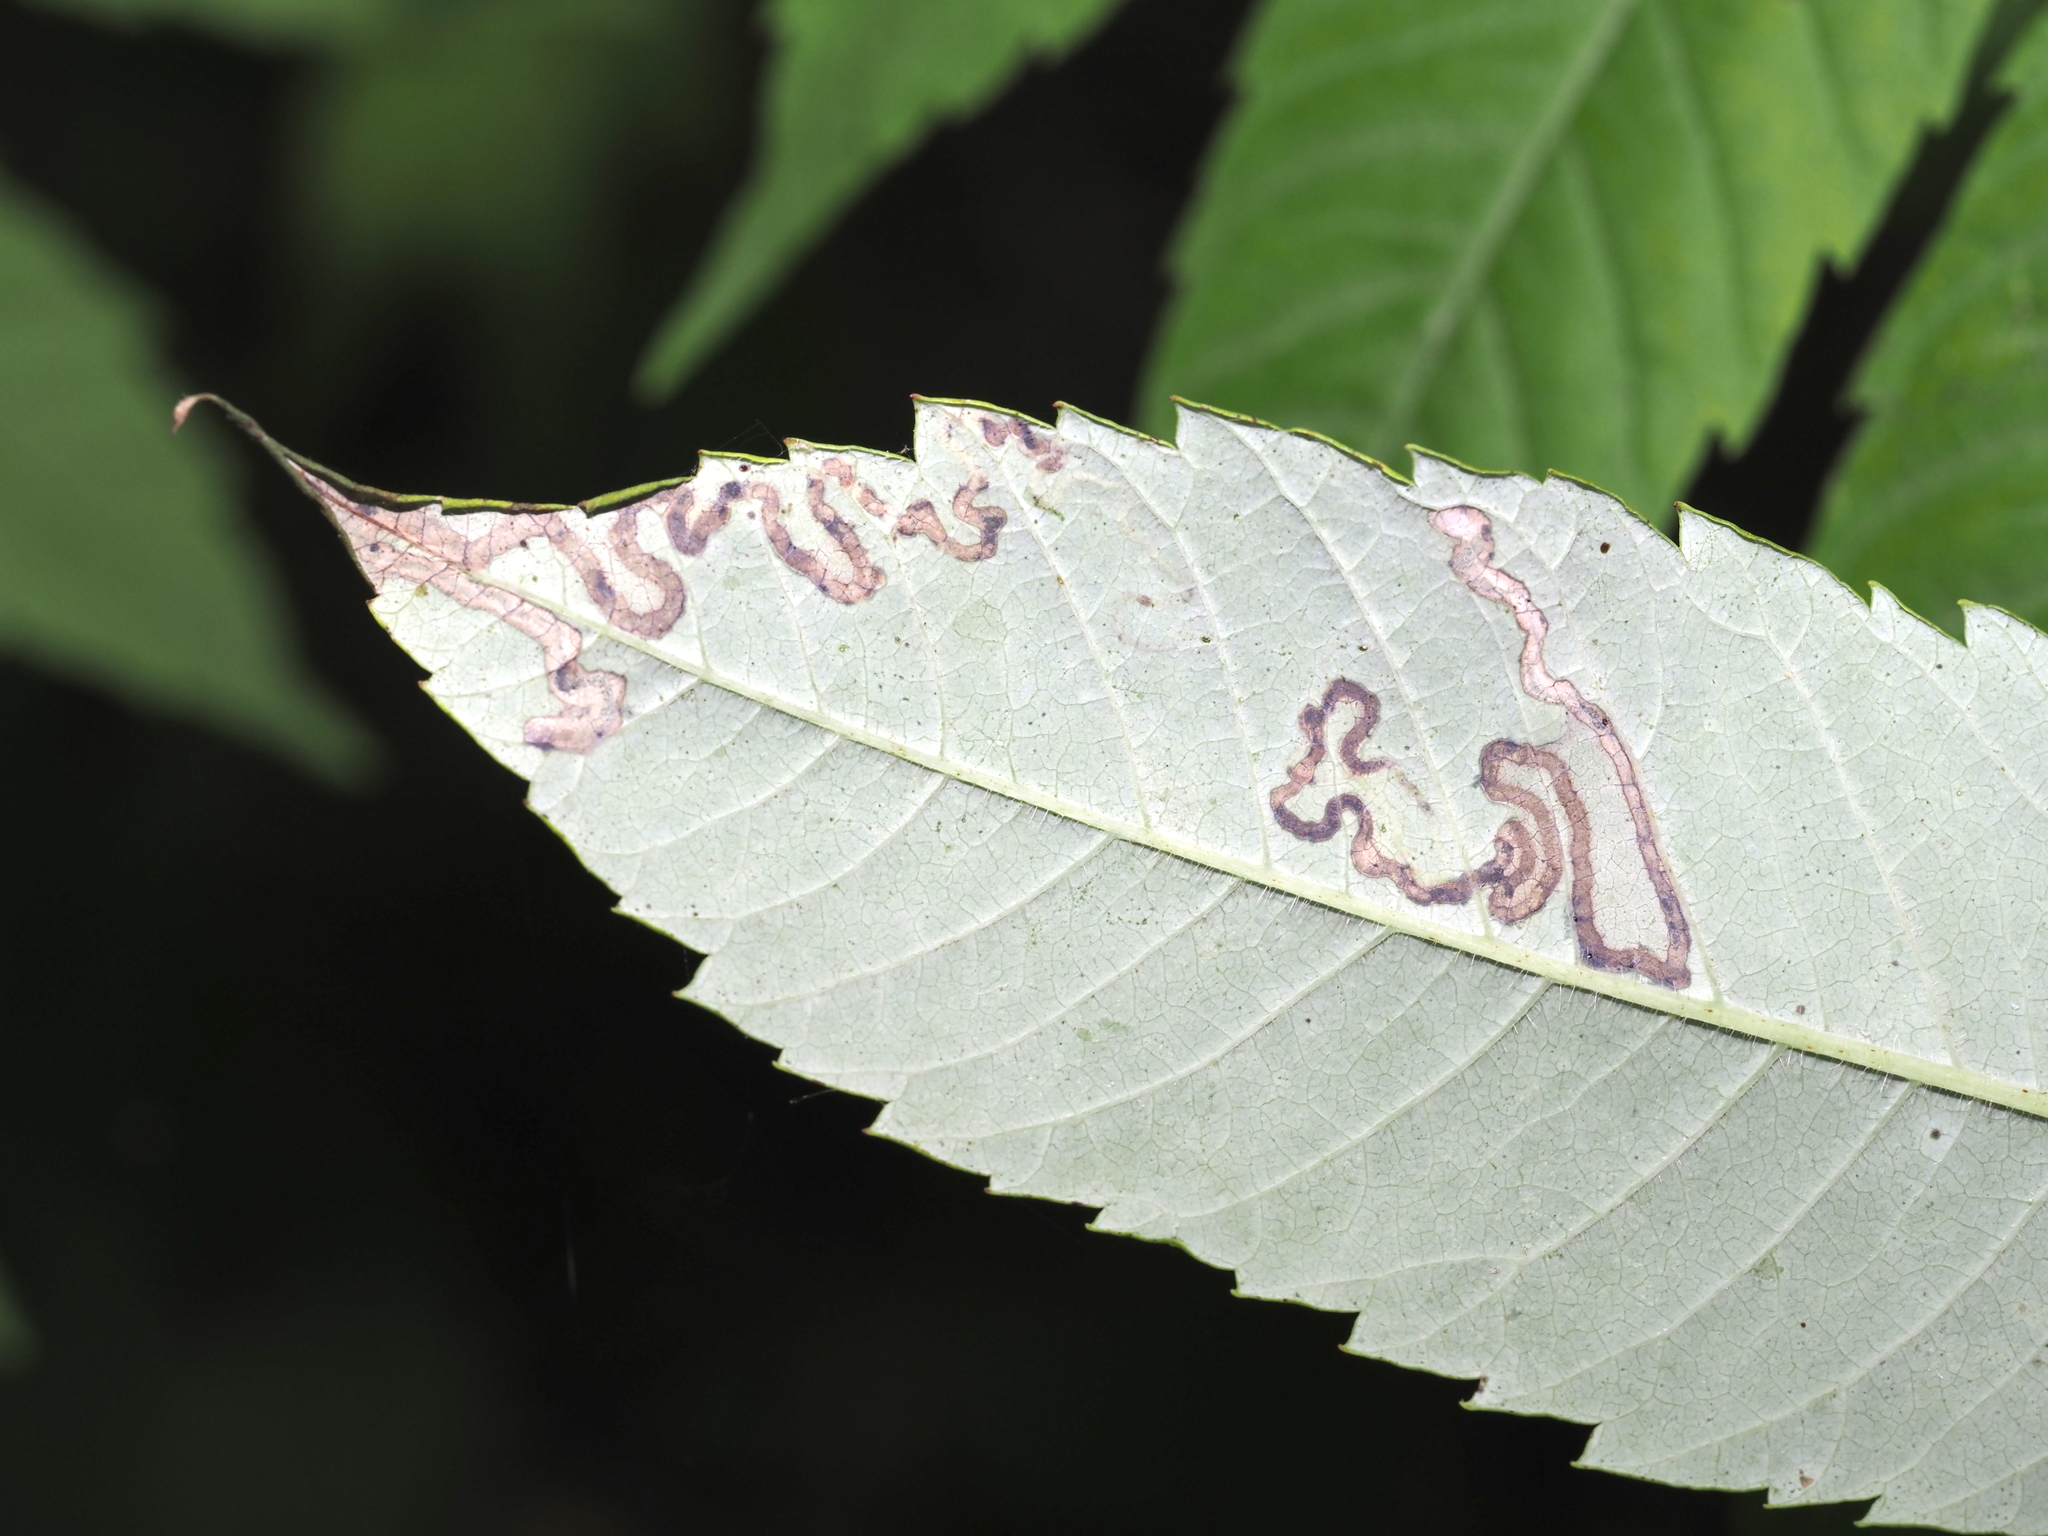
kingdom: Animalia
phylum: Arthropoda
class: Insecta
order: Lepidoptera
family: Nepticulidae
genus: Stigmella
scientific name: Stigmella intermedia
